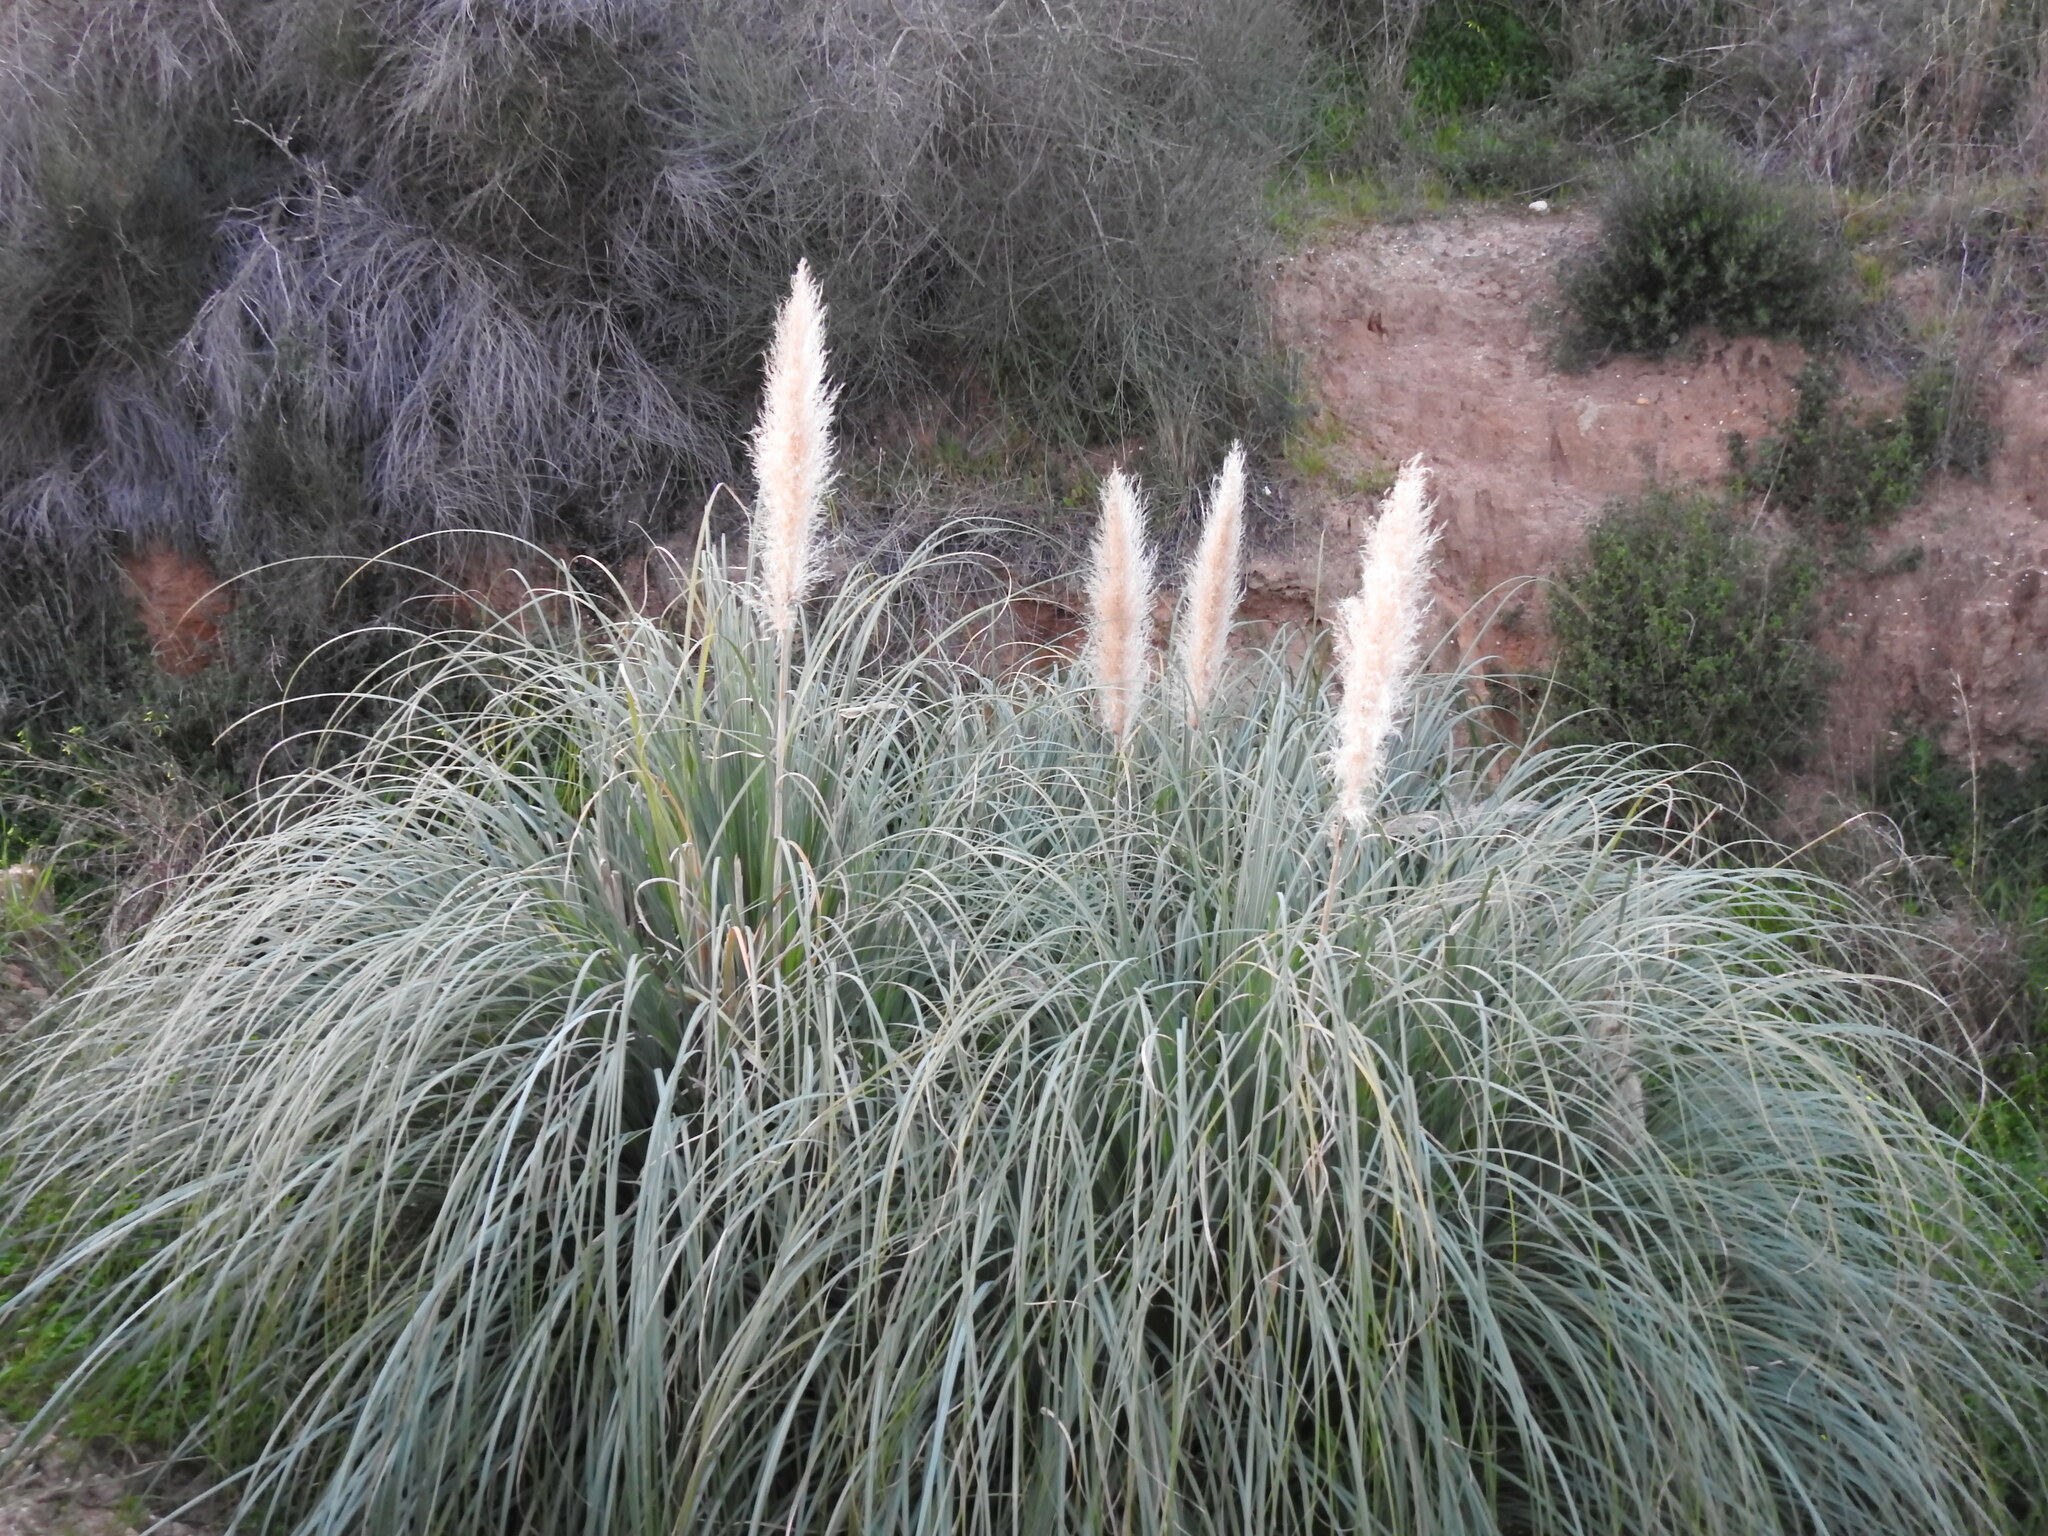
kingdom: Plantae
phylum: Tracheophyta
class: Liliopsida
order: Poales
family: Poaceae
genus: Cortaderia
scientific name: Cortaderia selloana
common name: Uruguayan pampas grass
